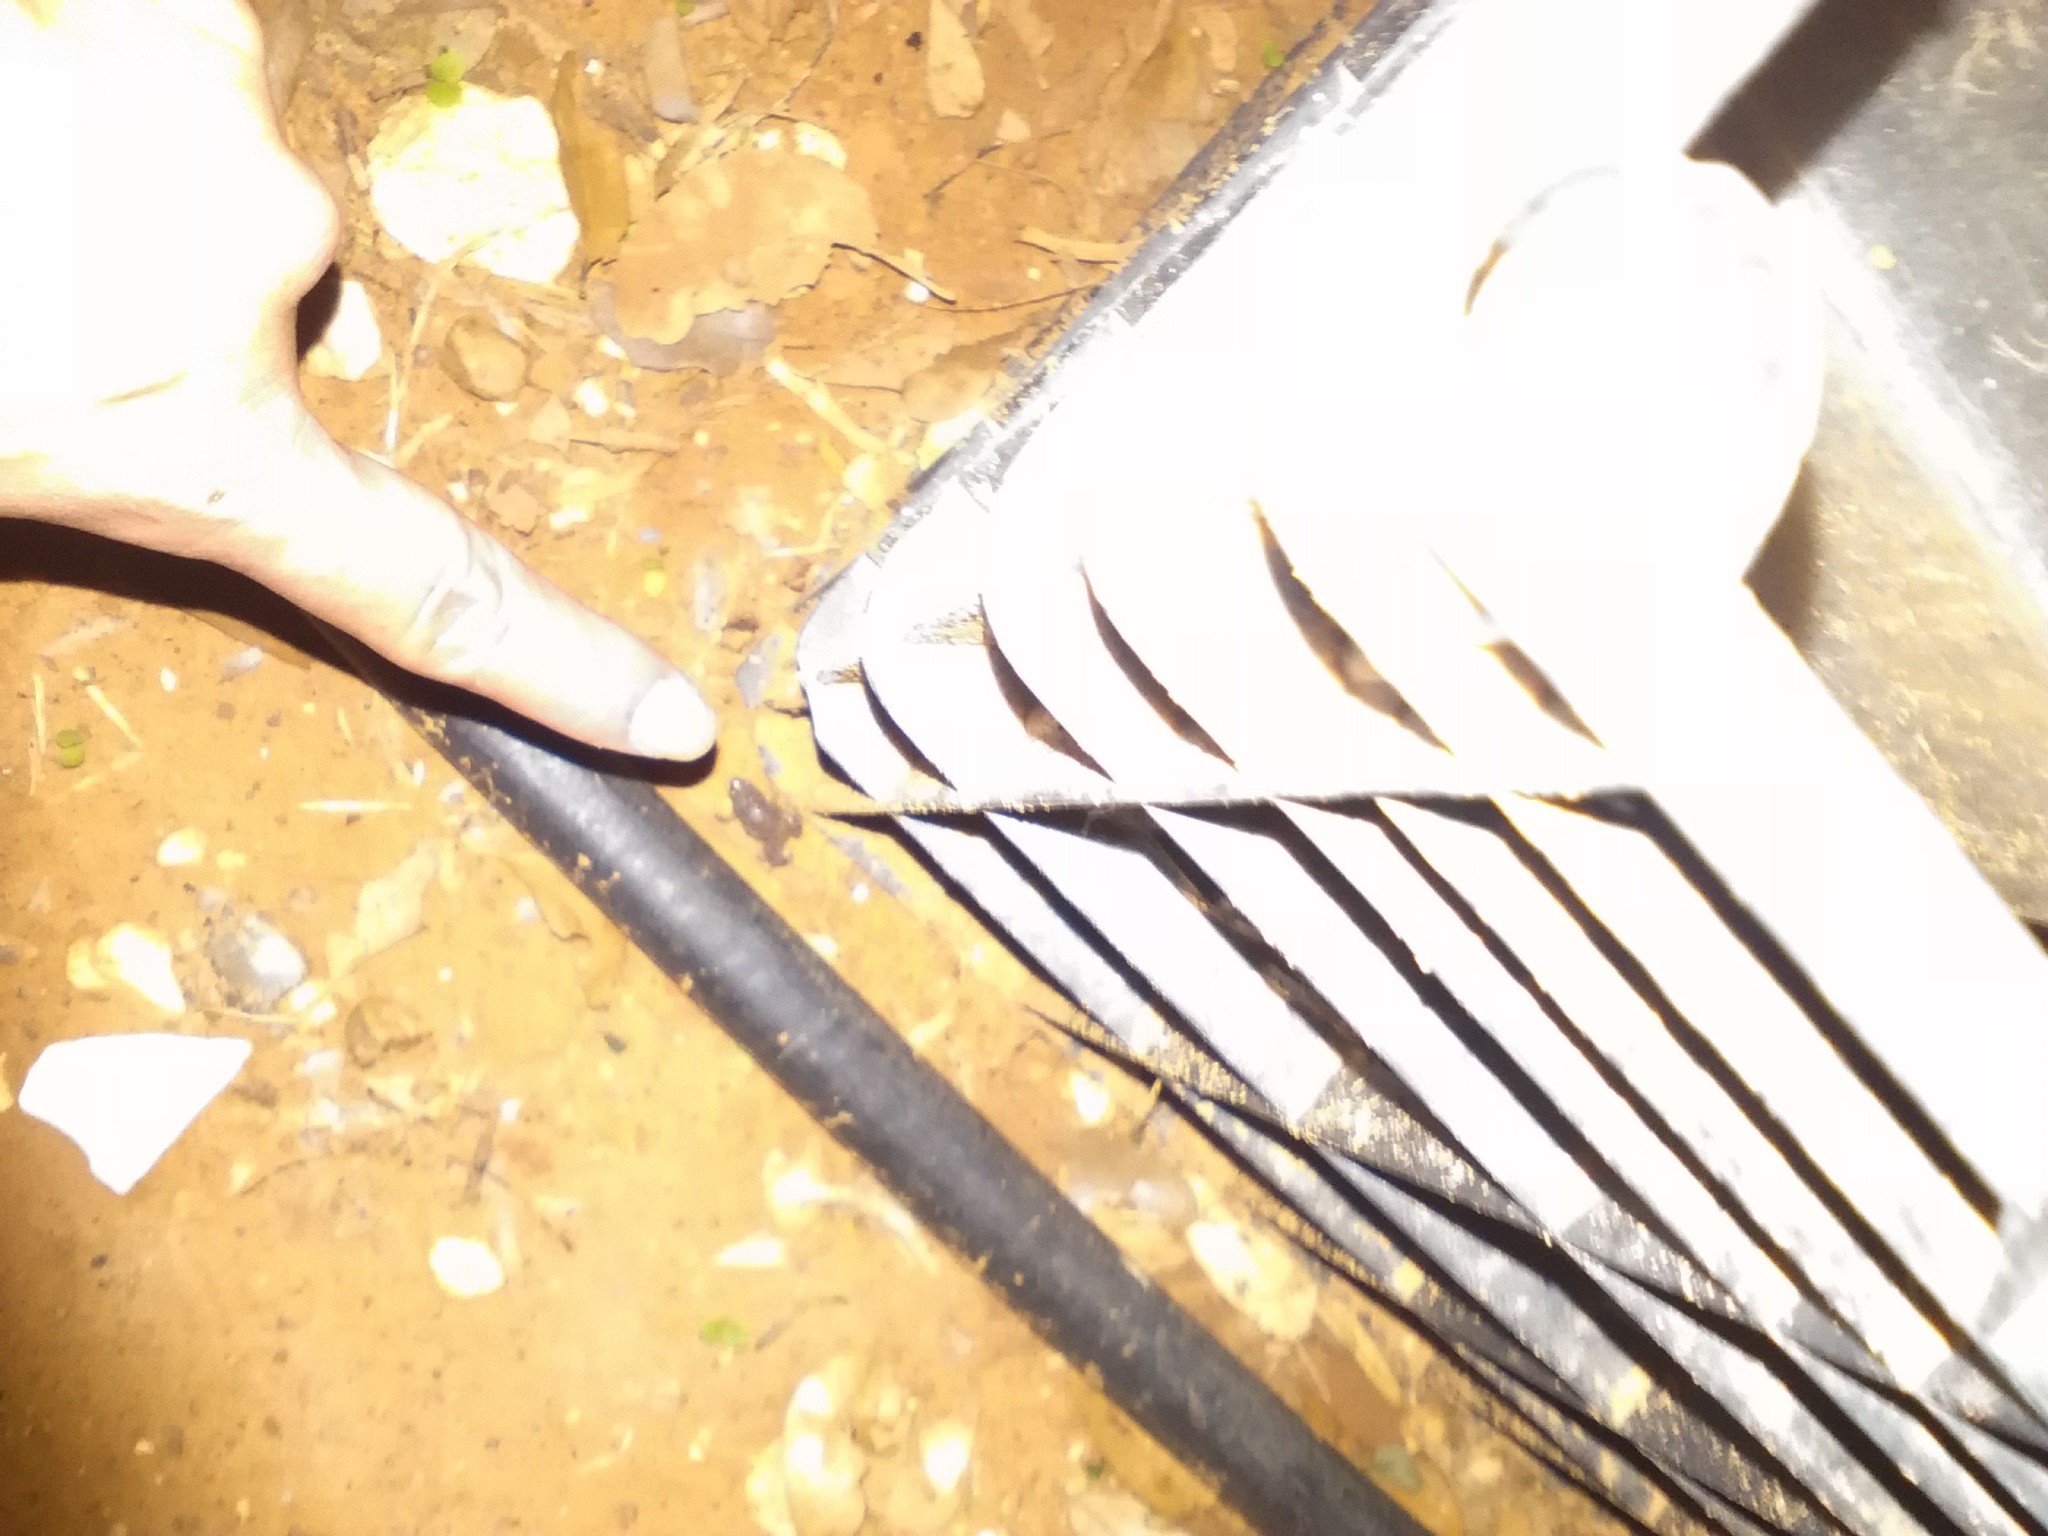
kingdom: Animalia
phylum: Chordata
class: Amphibia
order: Anura
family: Microhylidae
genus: Gastrophryne
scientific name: Gastrophryne olivacea
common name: Great plains narrow-mouthed toad
